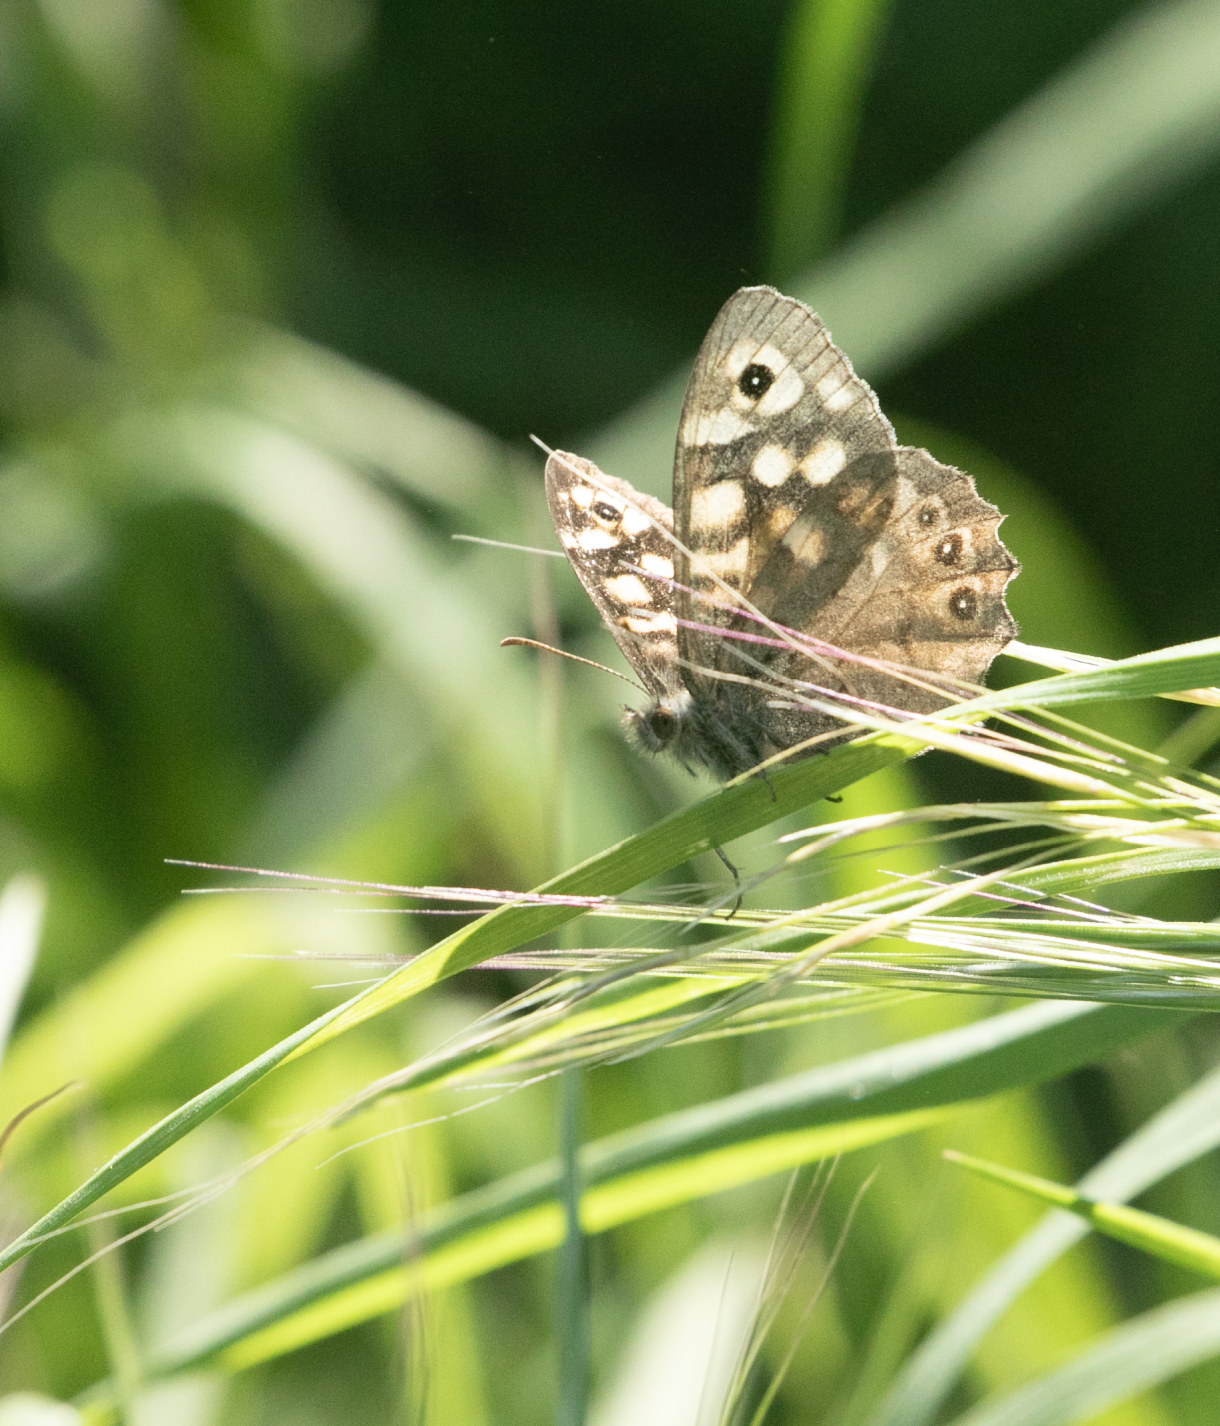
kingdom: Animalia
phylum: Arthropoda
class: Insecta
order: Lepidoptera
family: Nymphalidae
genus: Pararge
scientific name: Pararge aegeria
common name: Speckled wood
